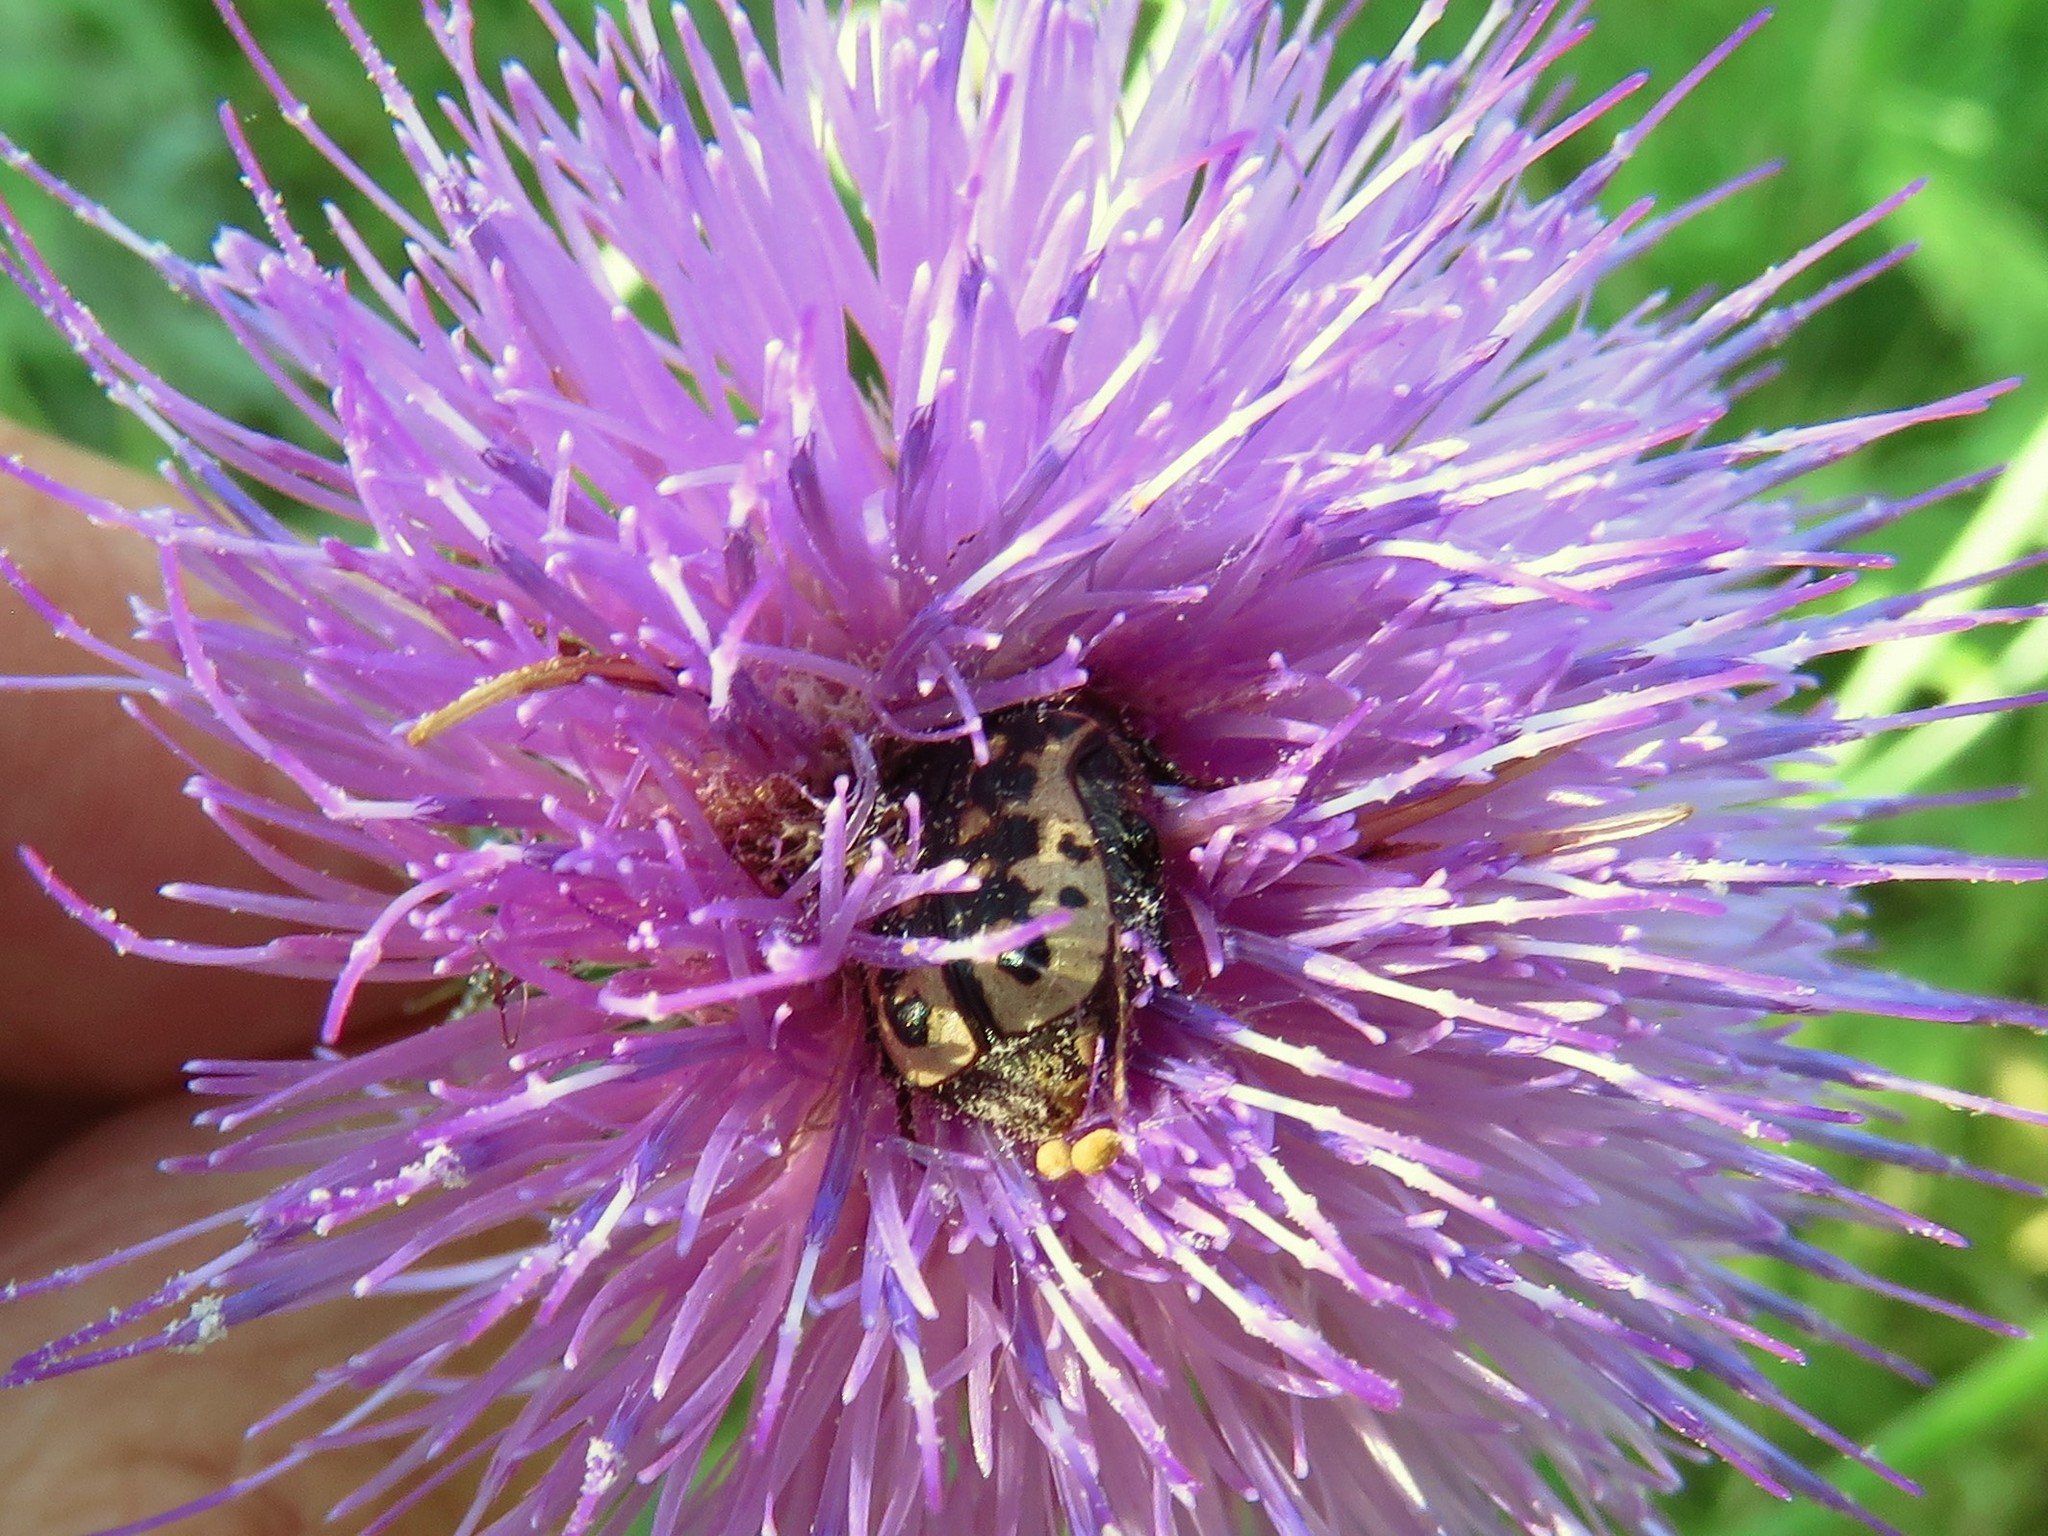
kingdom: Animalia
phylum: Arthropoda
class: Insecta
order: Coleoptera
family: Scarabaeidae
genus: Euphoria
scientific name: Euphoria kernii
